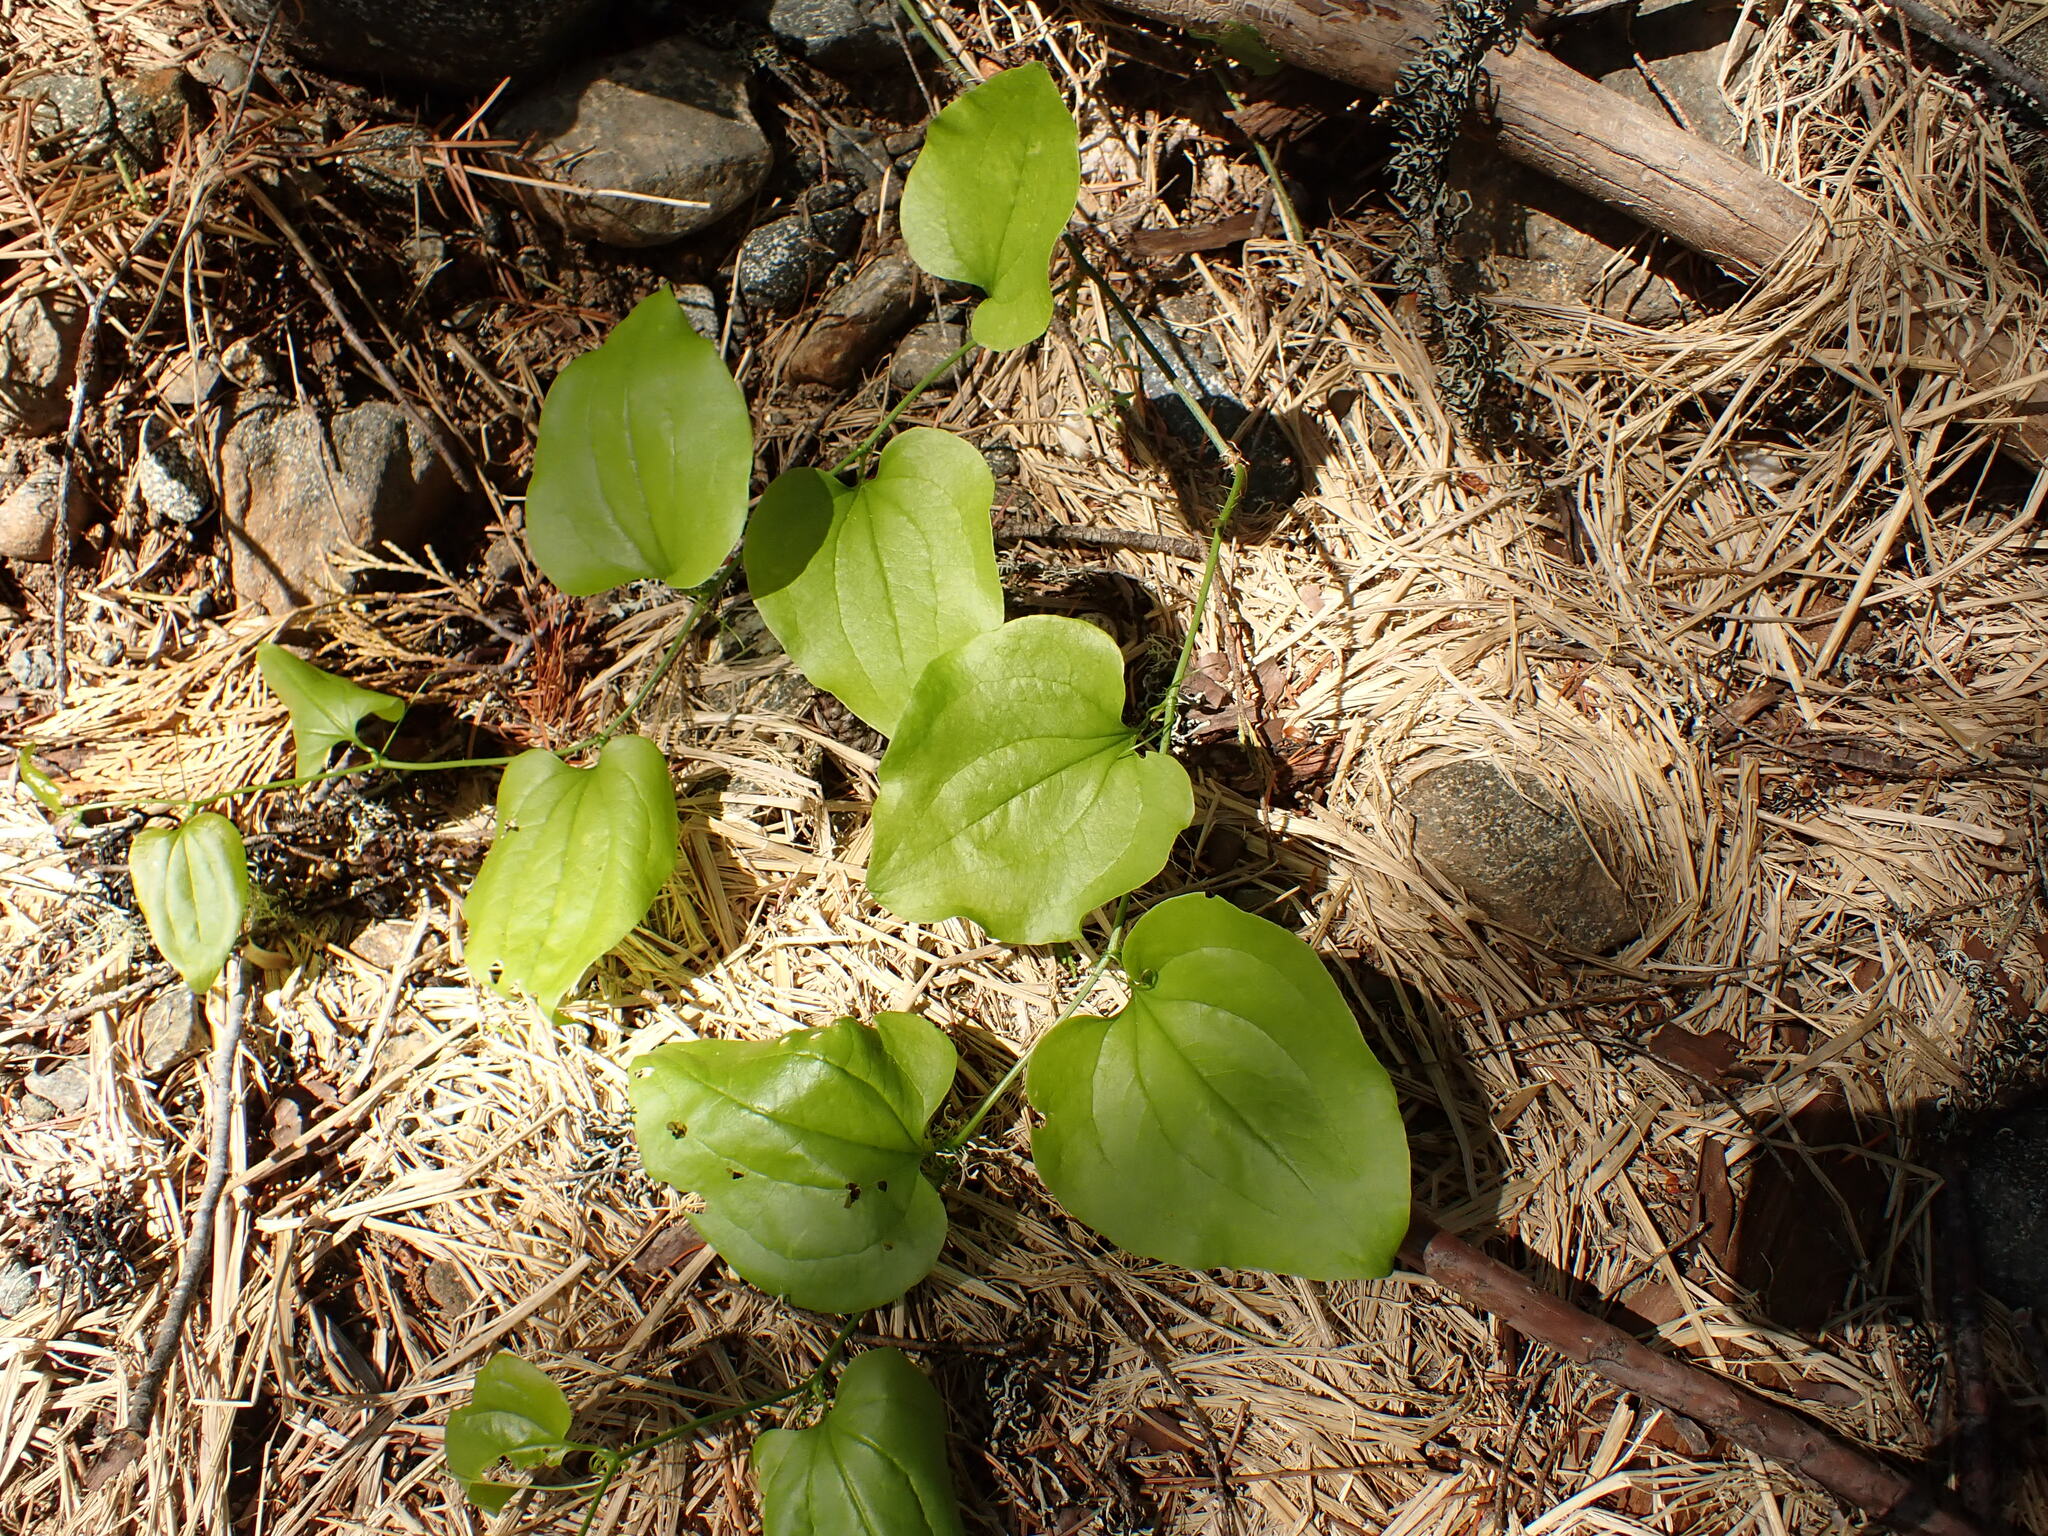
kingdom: Plantae
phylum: Tracheophyta
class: Liliopsida
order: Liliales
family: Smilacaceae
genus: Smilax
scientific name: Smilax californica
